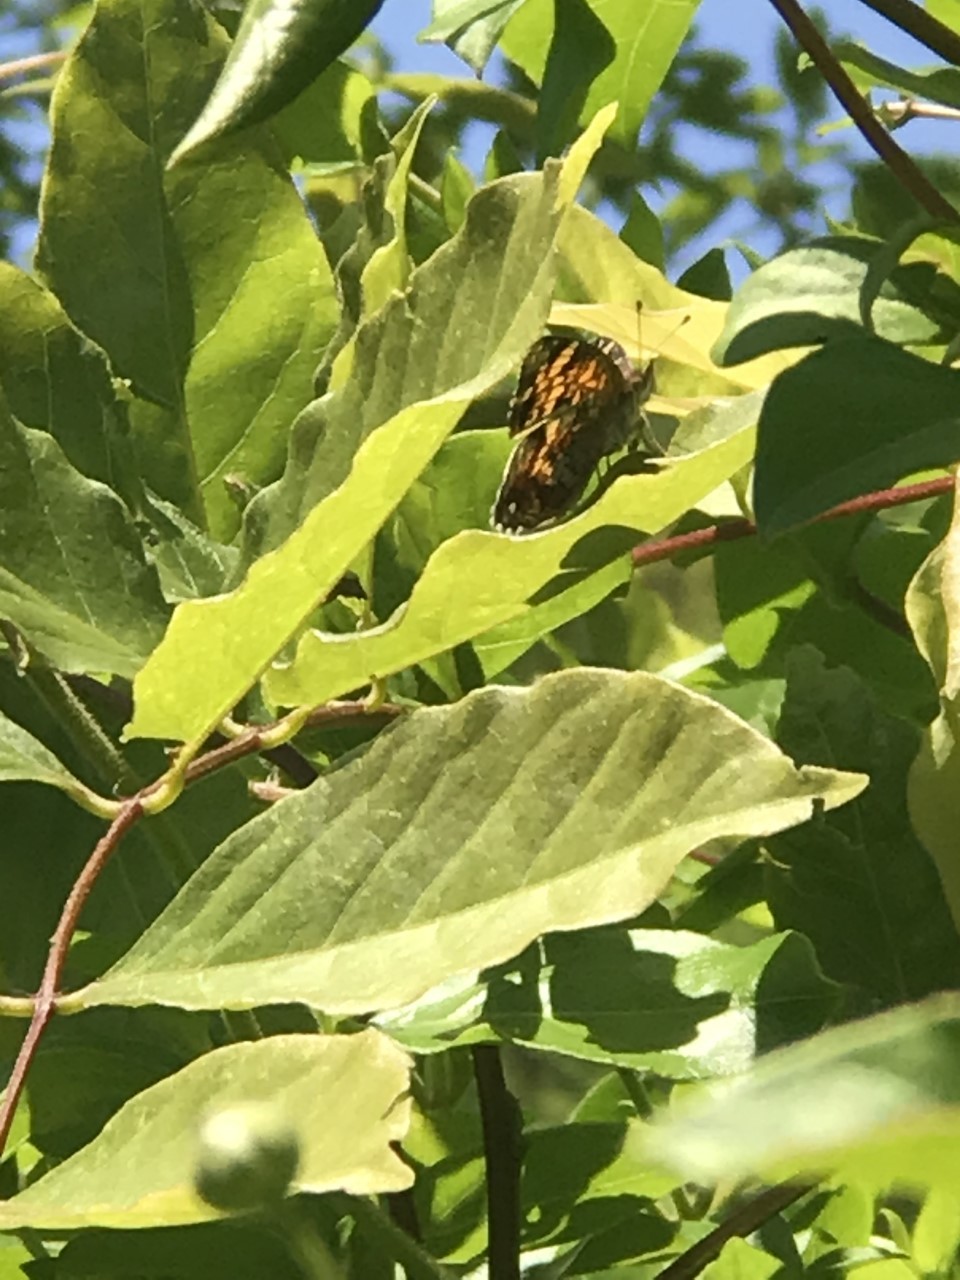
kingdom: Animalia
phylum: Arthropoda
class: Insecta
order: Lepidoptera
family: Nymphalidae
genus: Phyciodes
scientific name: Phyciodes tharos
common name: Pearl crescent
